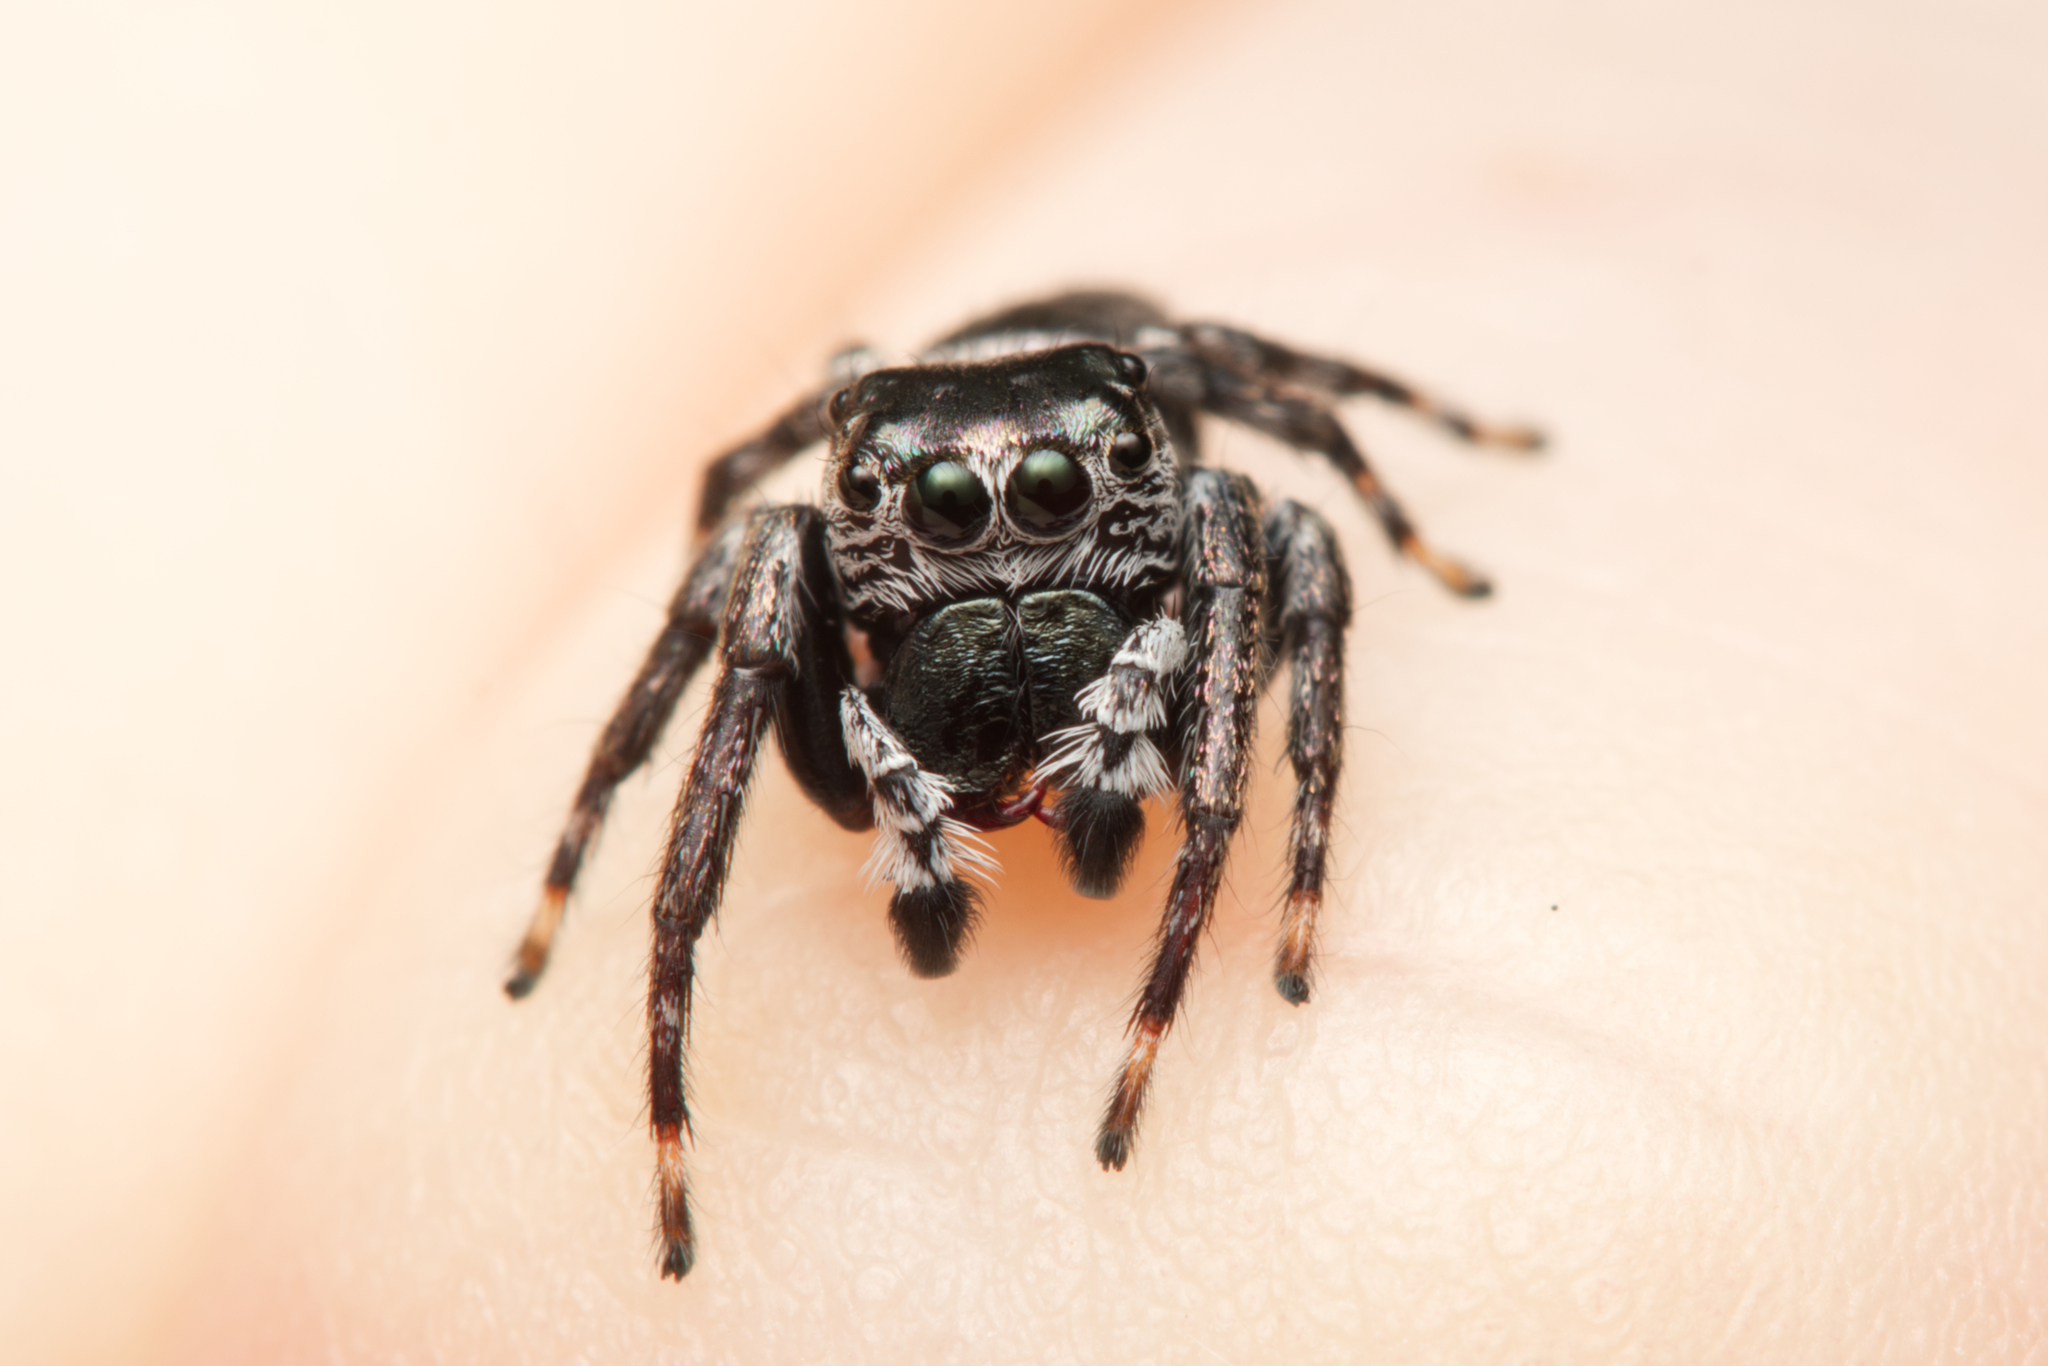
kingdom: Animalia
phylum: Arthropoda
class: Arachnida
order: Araneae
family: Salticidae
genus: Euryattus
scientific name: Euryattus bleekeri
